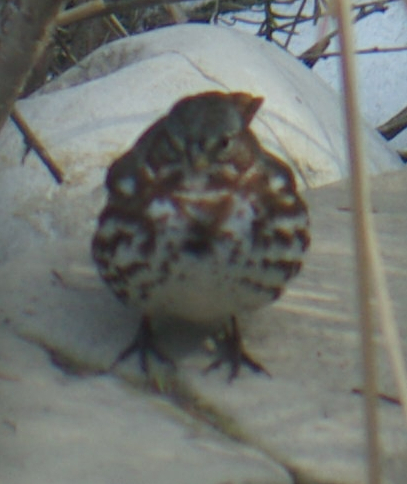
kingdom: Animalia
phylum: Chordata
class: Aves
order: Passeriformes
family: Passerellidae
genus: Passerella
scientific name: Passerella iliaca
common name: Fox sparrow
